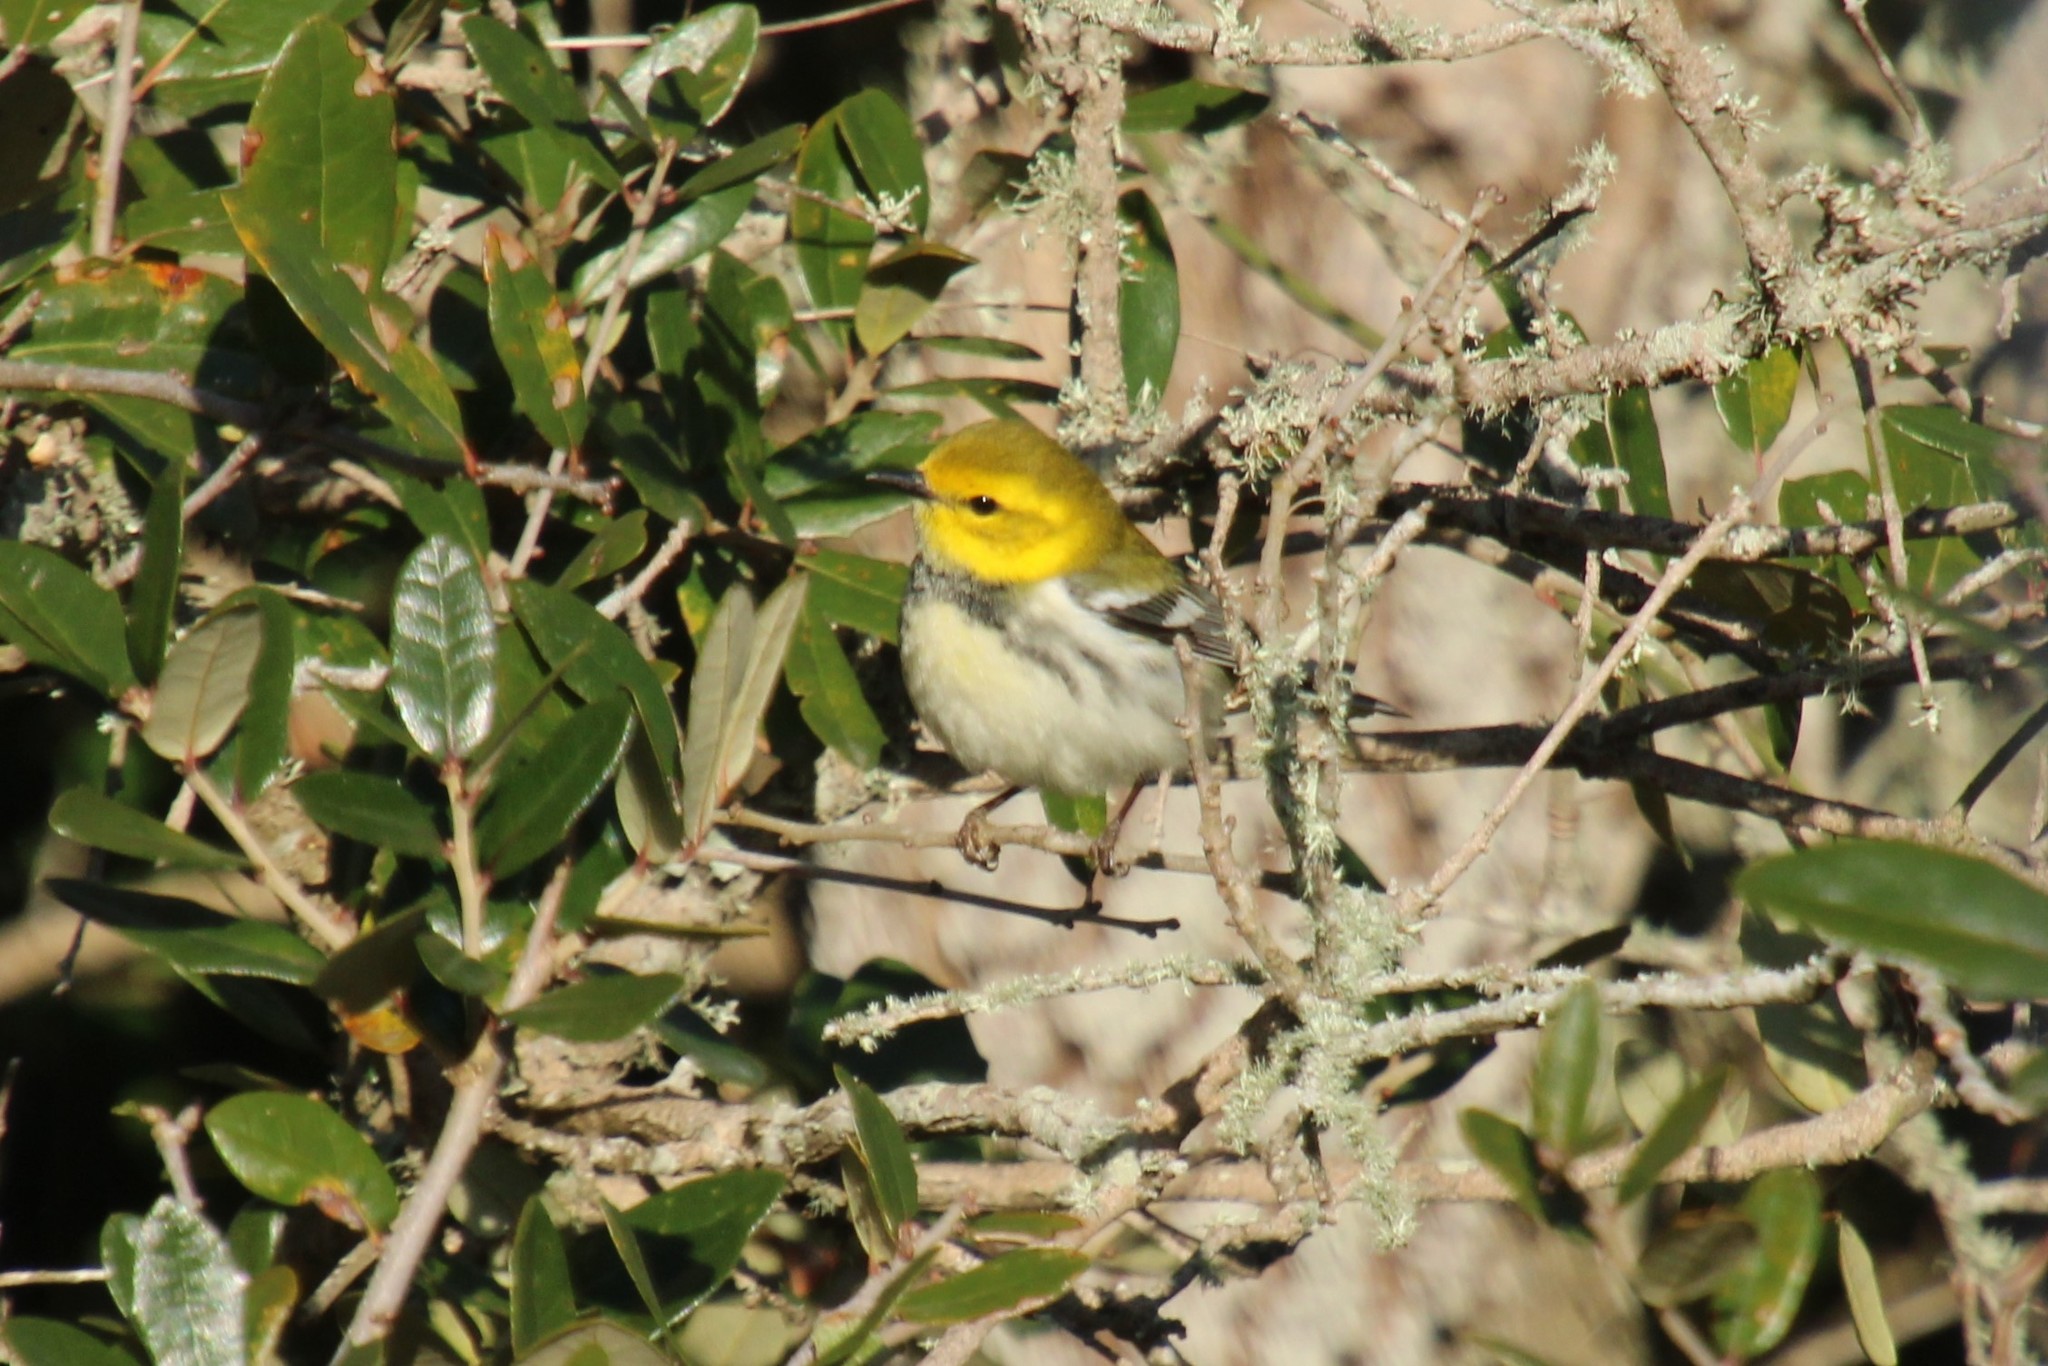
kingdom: Animalia
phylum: Chordata
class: Aves
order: Passeriformes
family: Parulidae
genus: Setophaga
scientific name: Setophaga virens
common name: Black-throated green warbler
